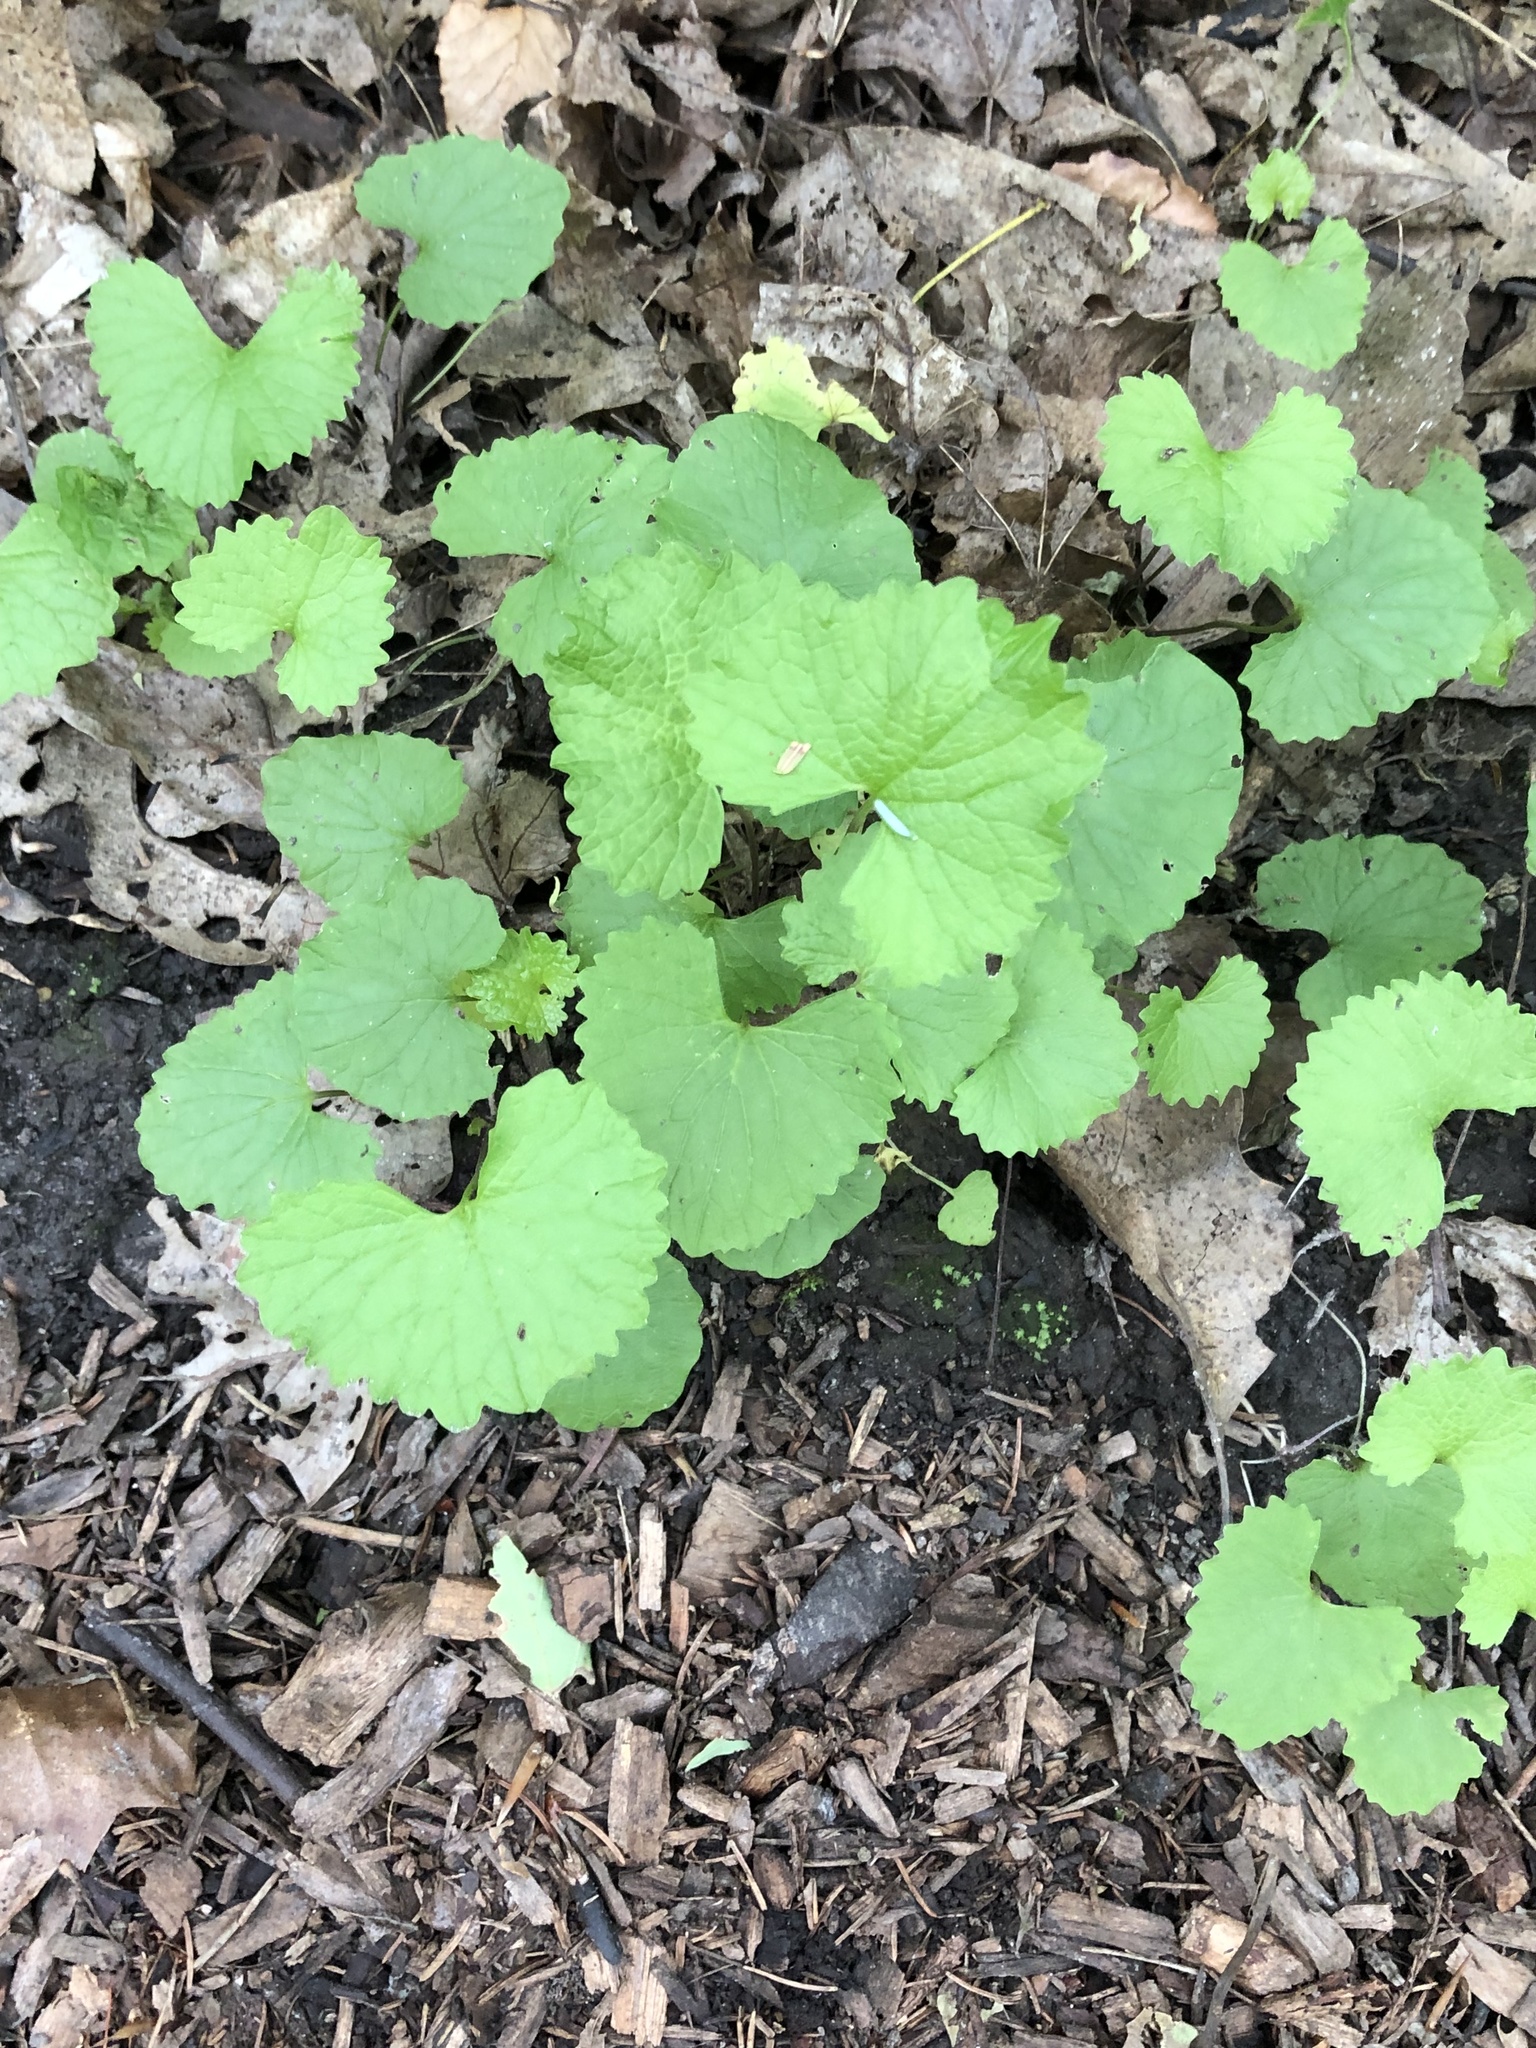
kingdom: Plantae
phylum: Tracheophyta
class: Magnoliopsida
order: Brassicales
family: Brassicaceae
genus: Alliaria
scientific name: Alliaria petiolata
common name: Garlic mustard
